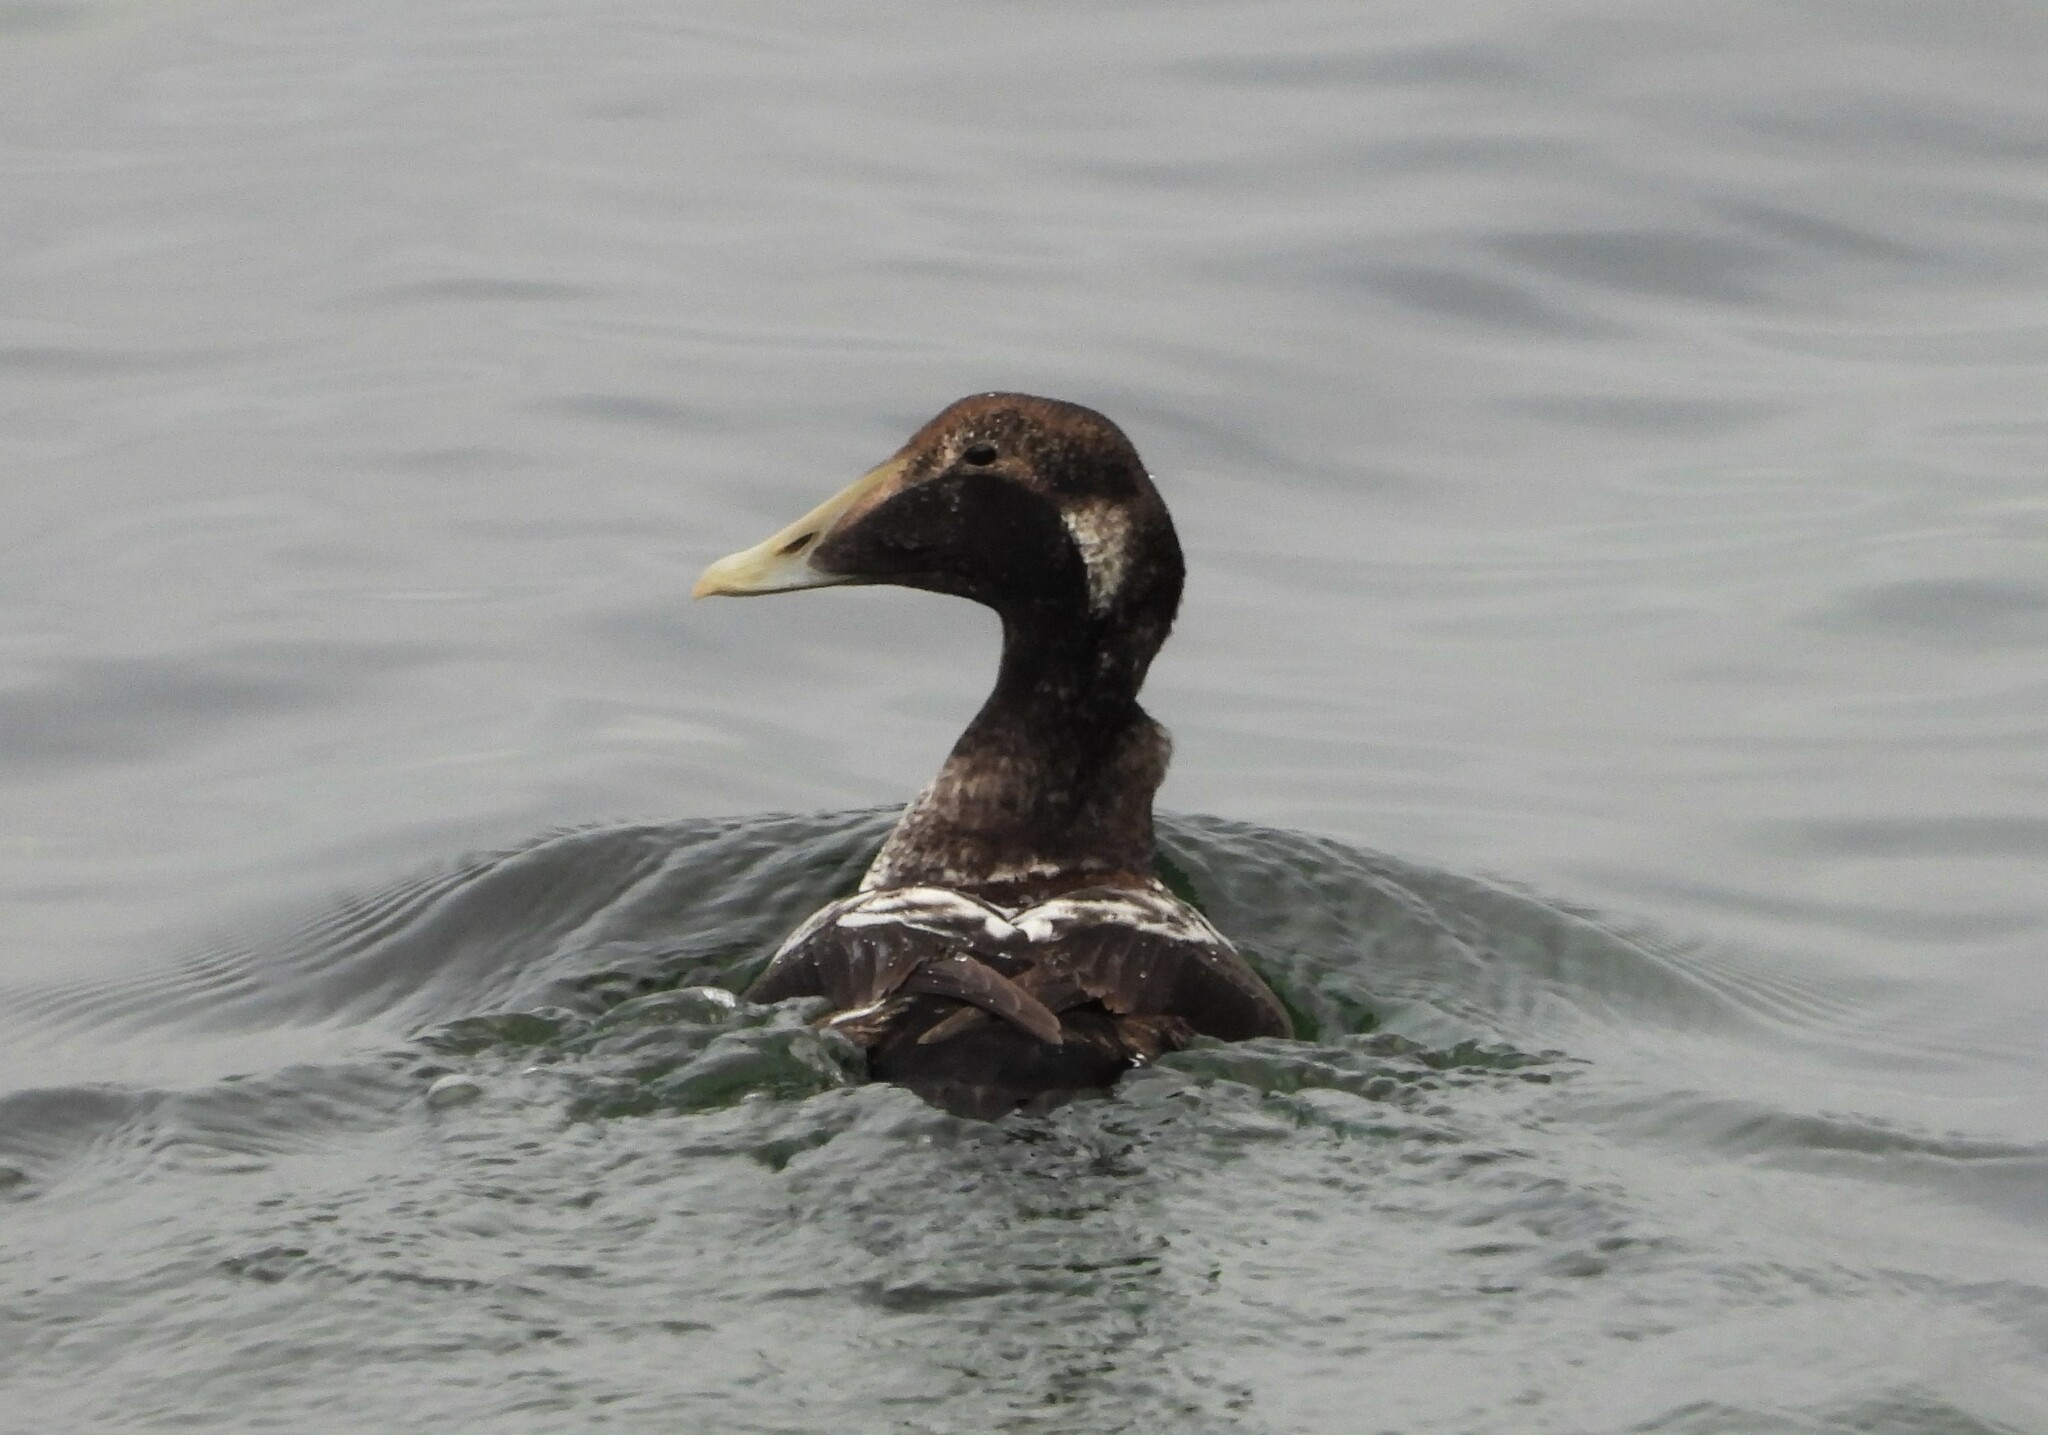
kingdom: Animalia
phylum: Chordata
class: Aves
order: Anseriformes
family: Anatidae
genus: Somateria
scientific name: Somateria mollissima
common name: Common eider
